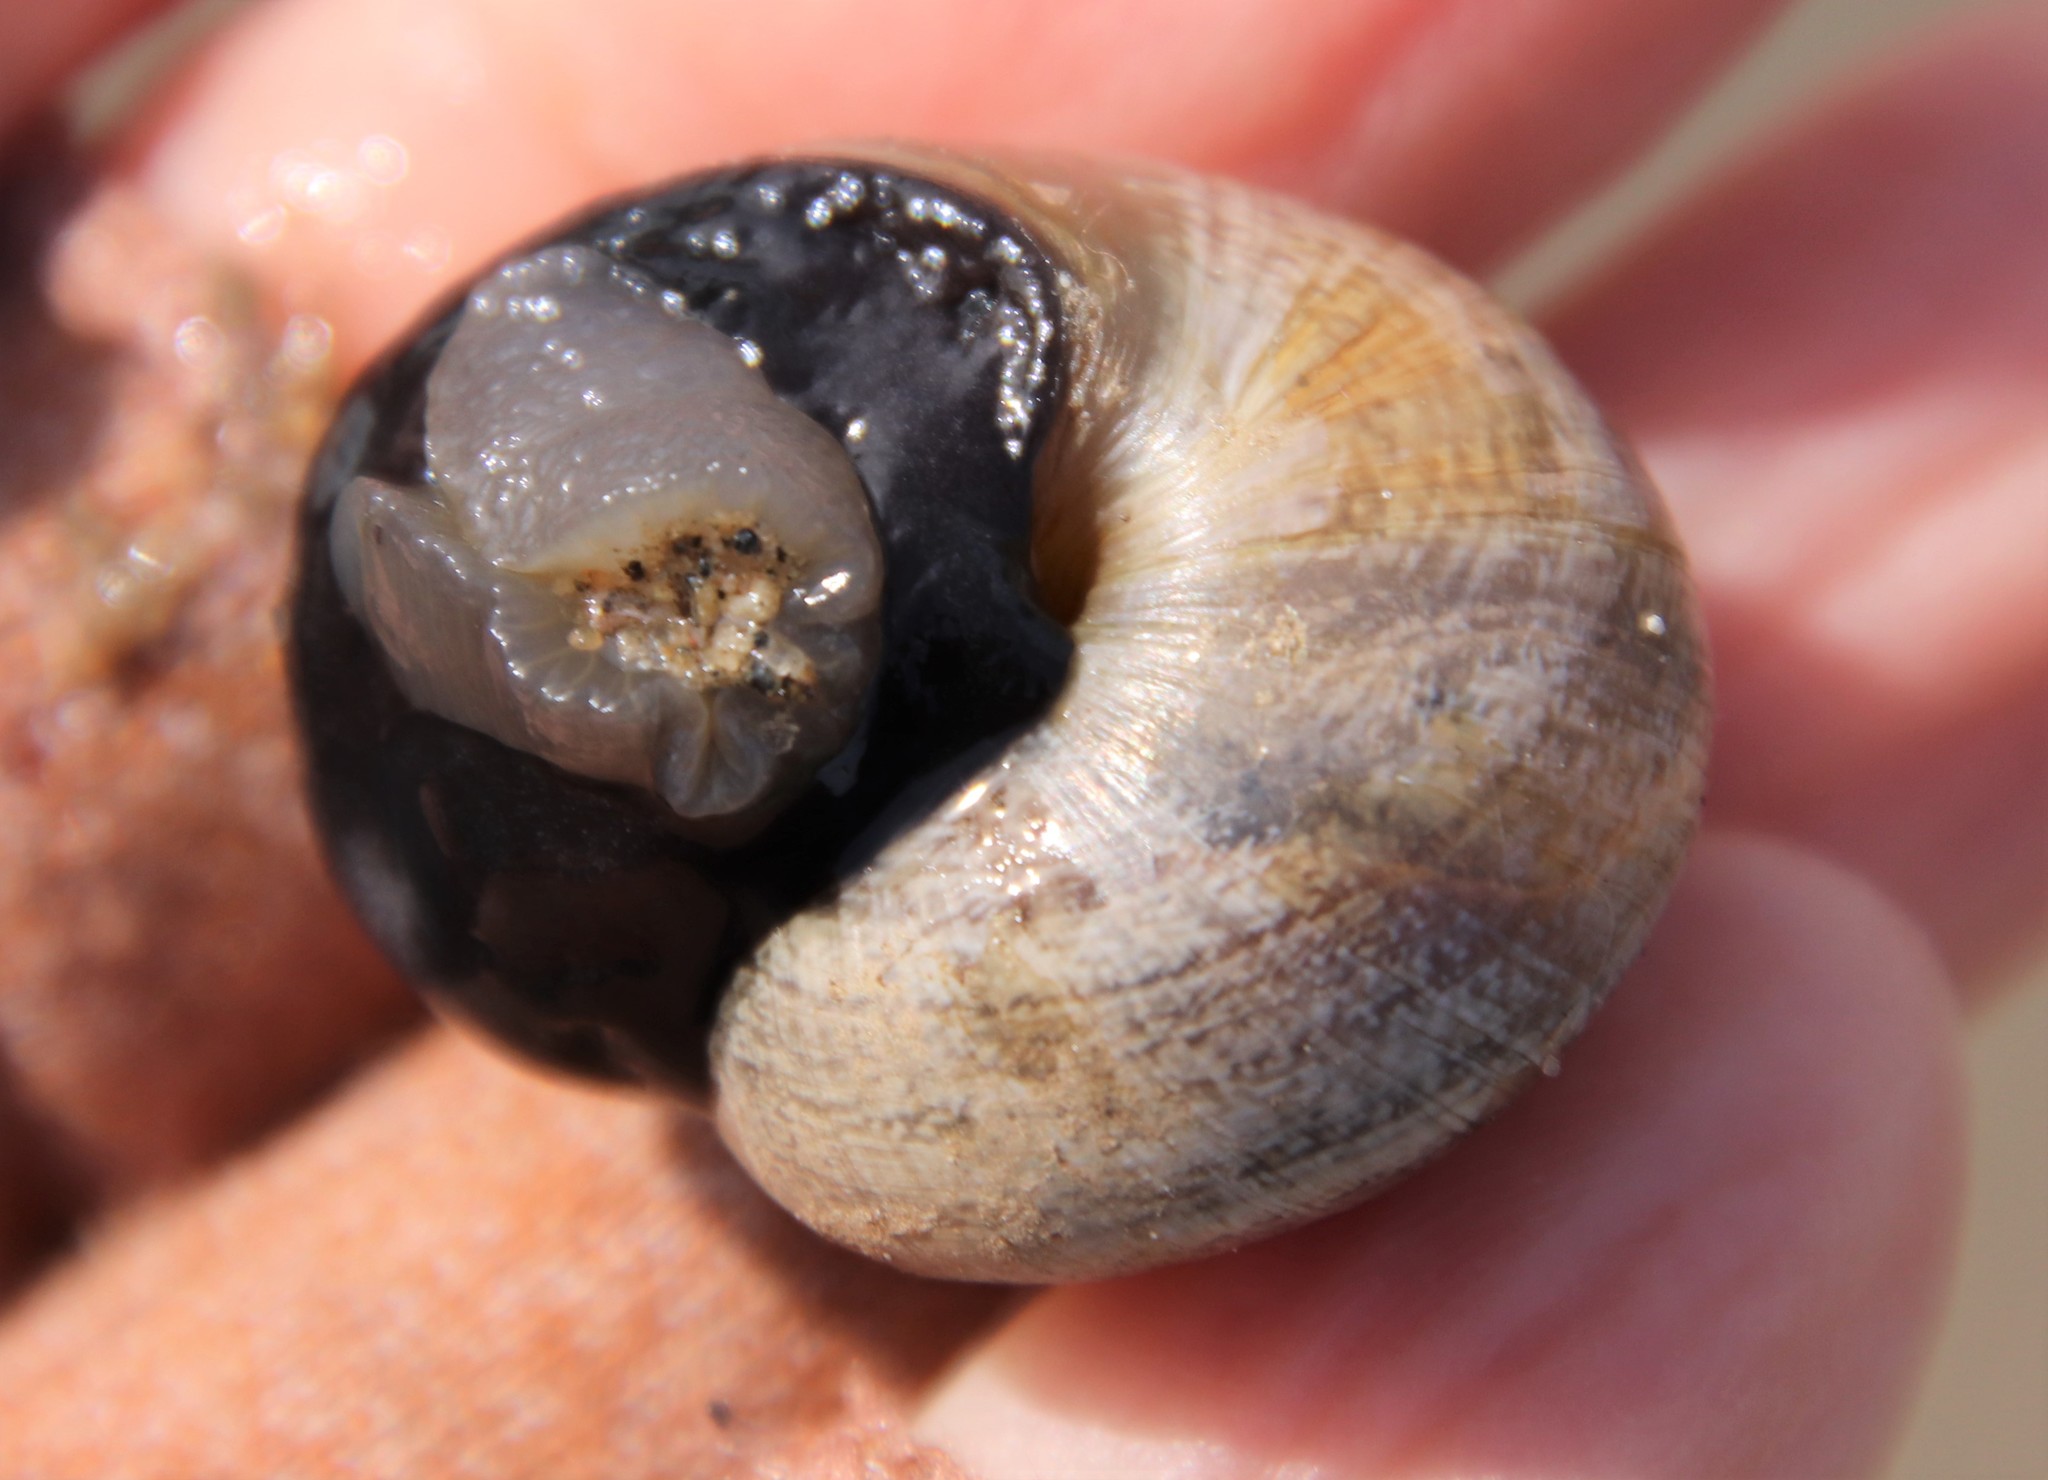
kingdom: Animalia
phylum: Mollusca
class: Gastropoda
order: Stylommatophora
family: Helicidae
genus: Otala
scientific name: Otala lactea
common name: Milk snail
